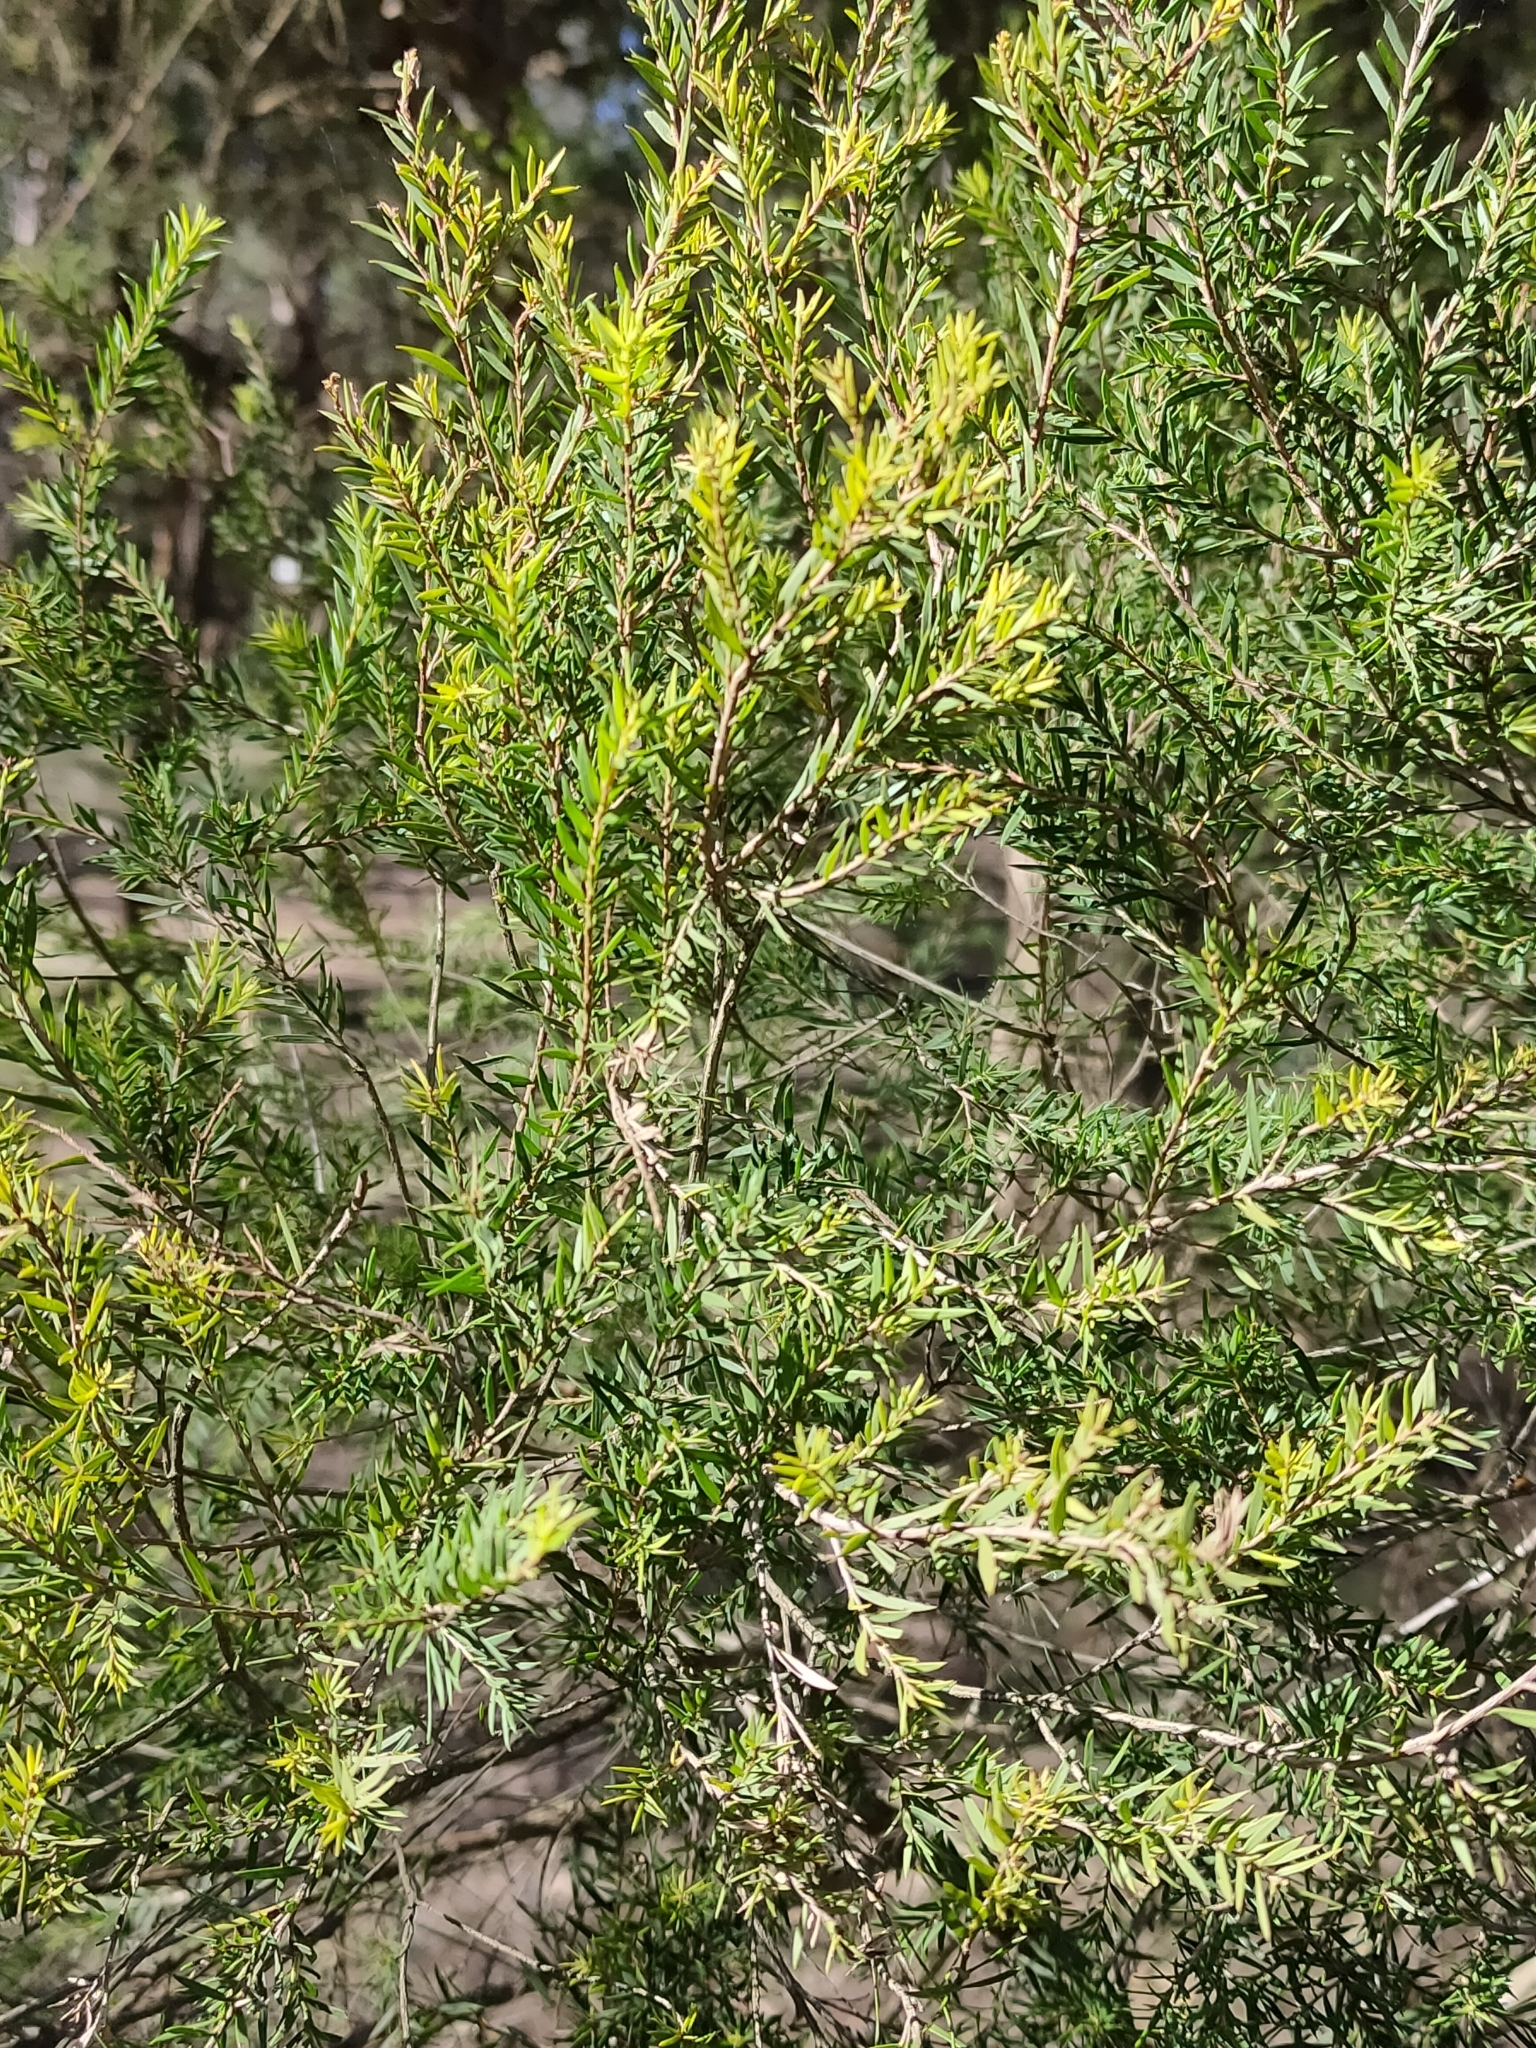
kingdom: Plantae
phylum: Tracheophyta
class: Magnoliopsida
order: Myrtales
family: Myrtaceae
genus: Melaleuca
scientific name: Melaleuca decora
